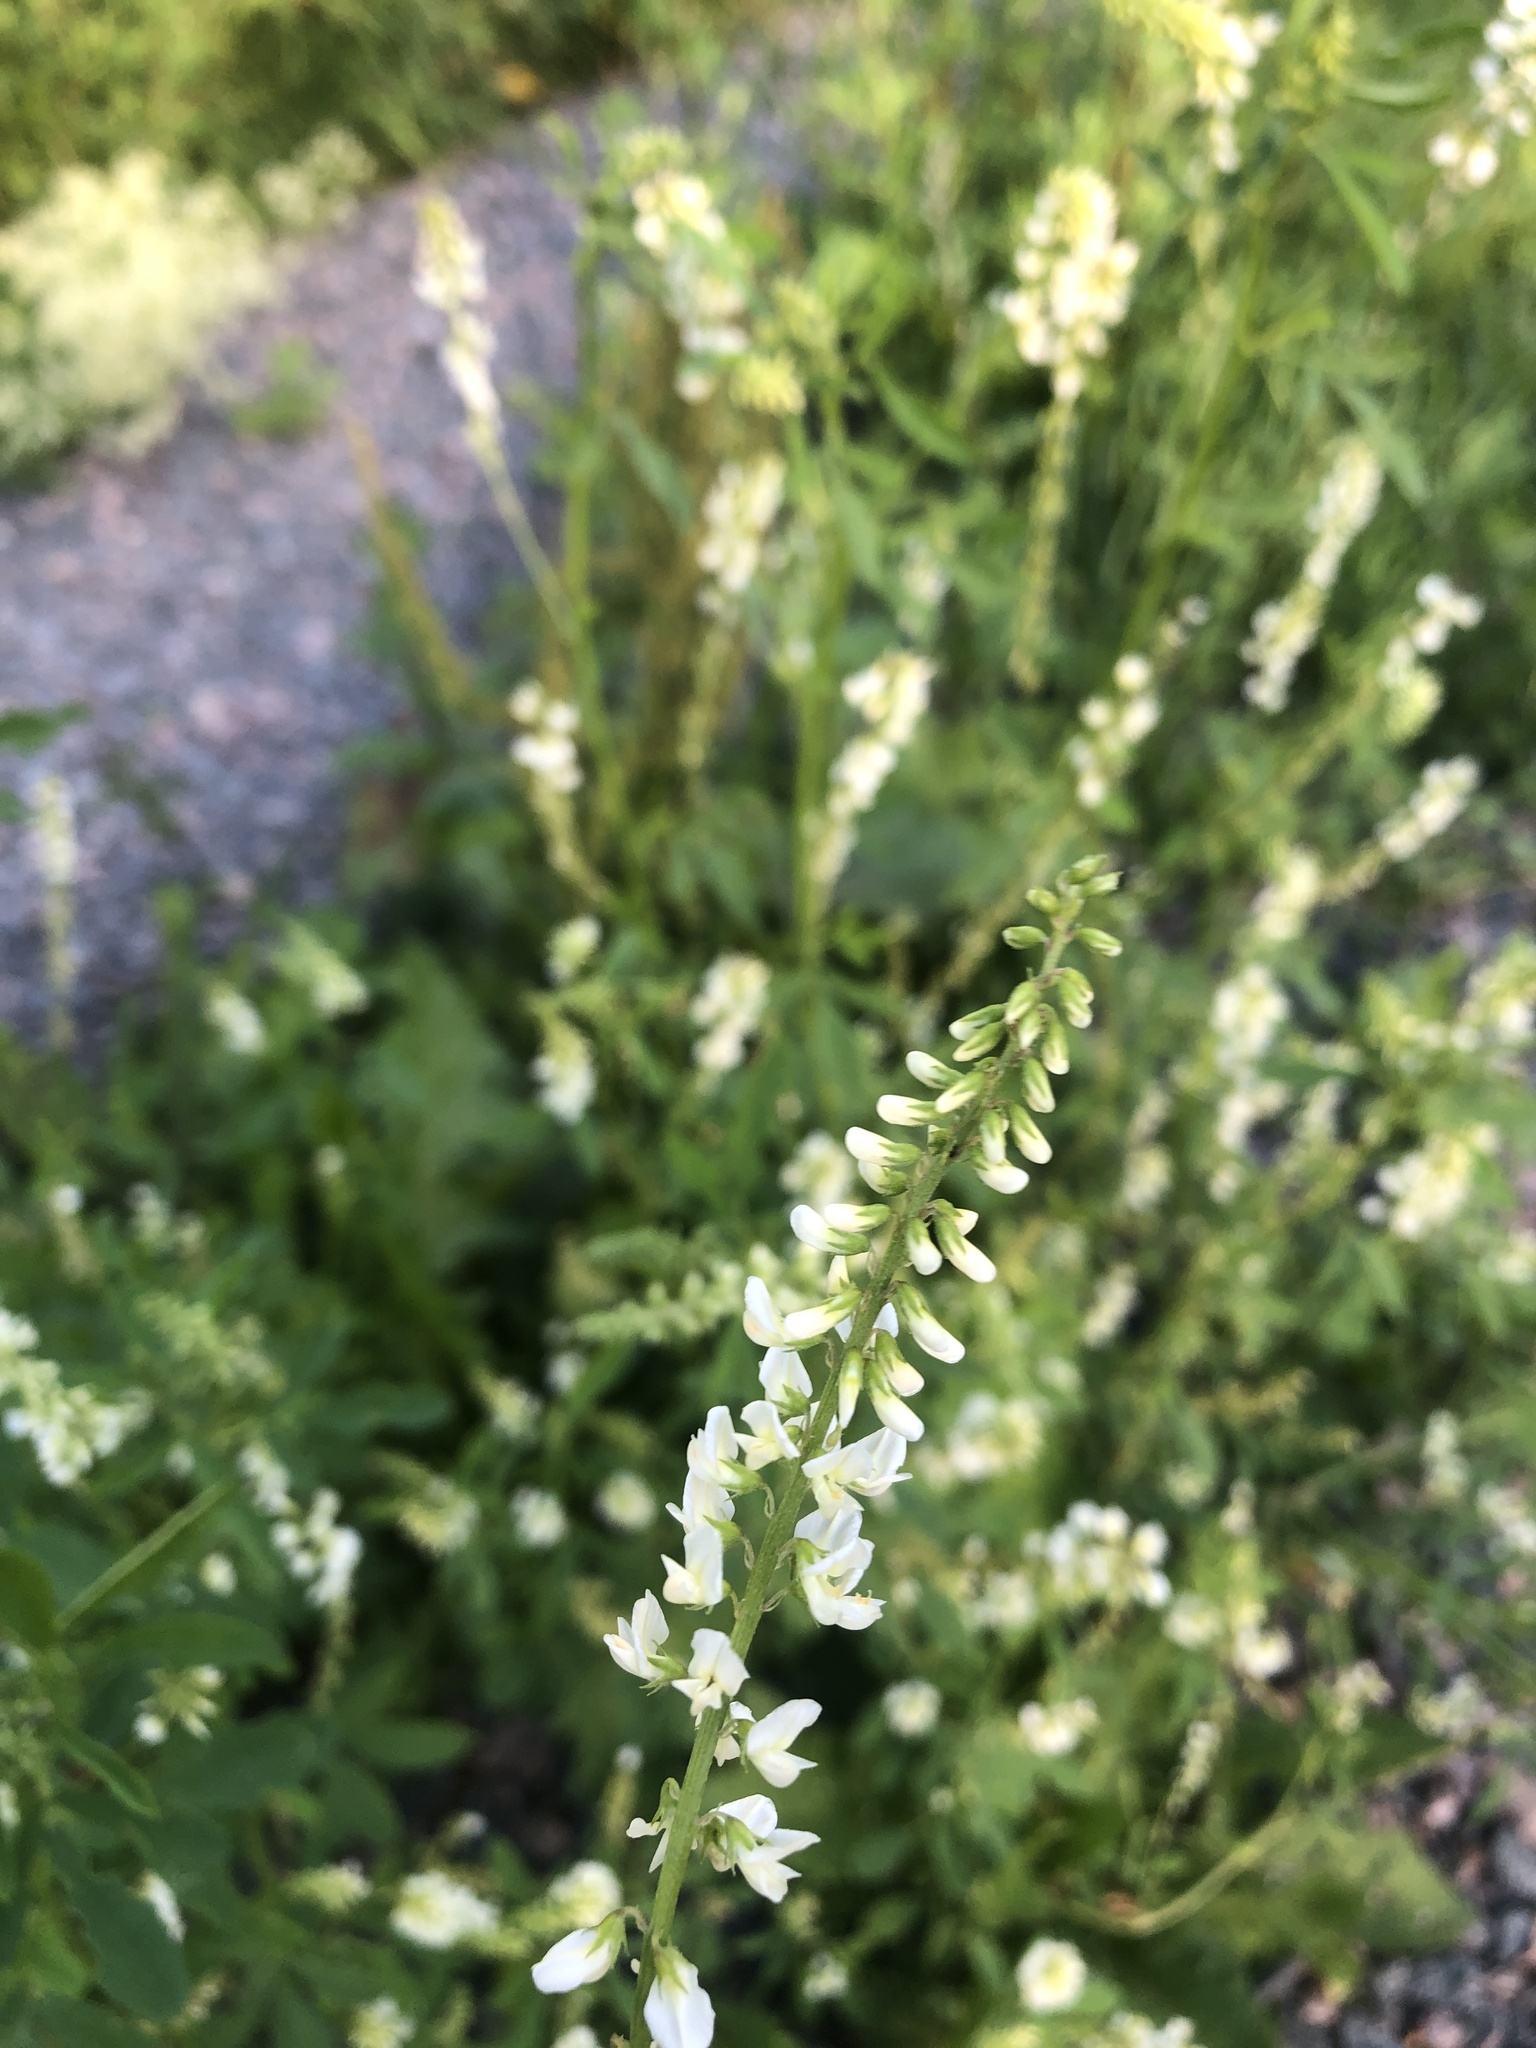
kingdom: Plantae
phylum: Tracheophyta
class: Magnoliopsida
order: Fabales
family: Fabaceae
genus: Melilotus
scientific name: Melilotus albus
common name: White melilot
